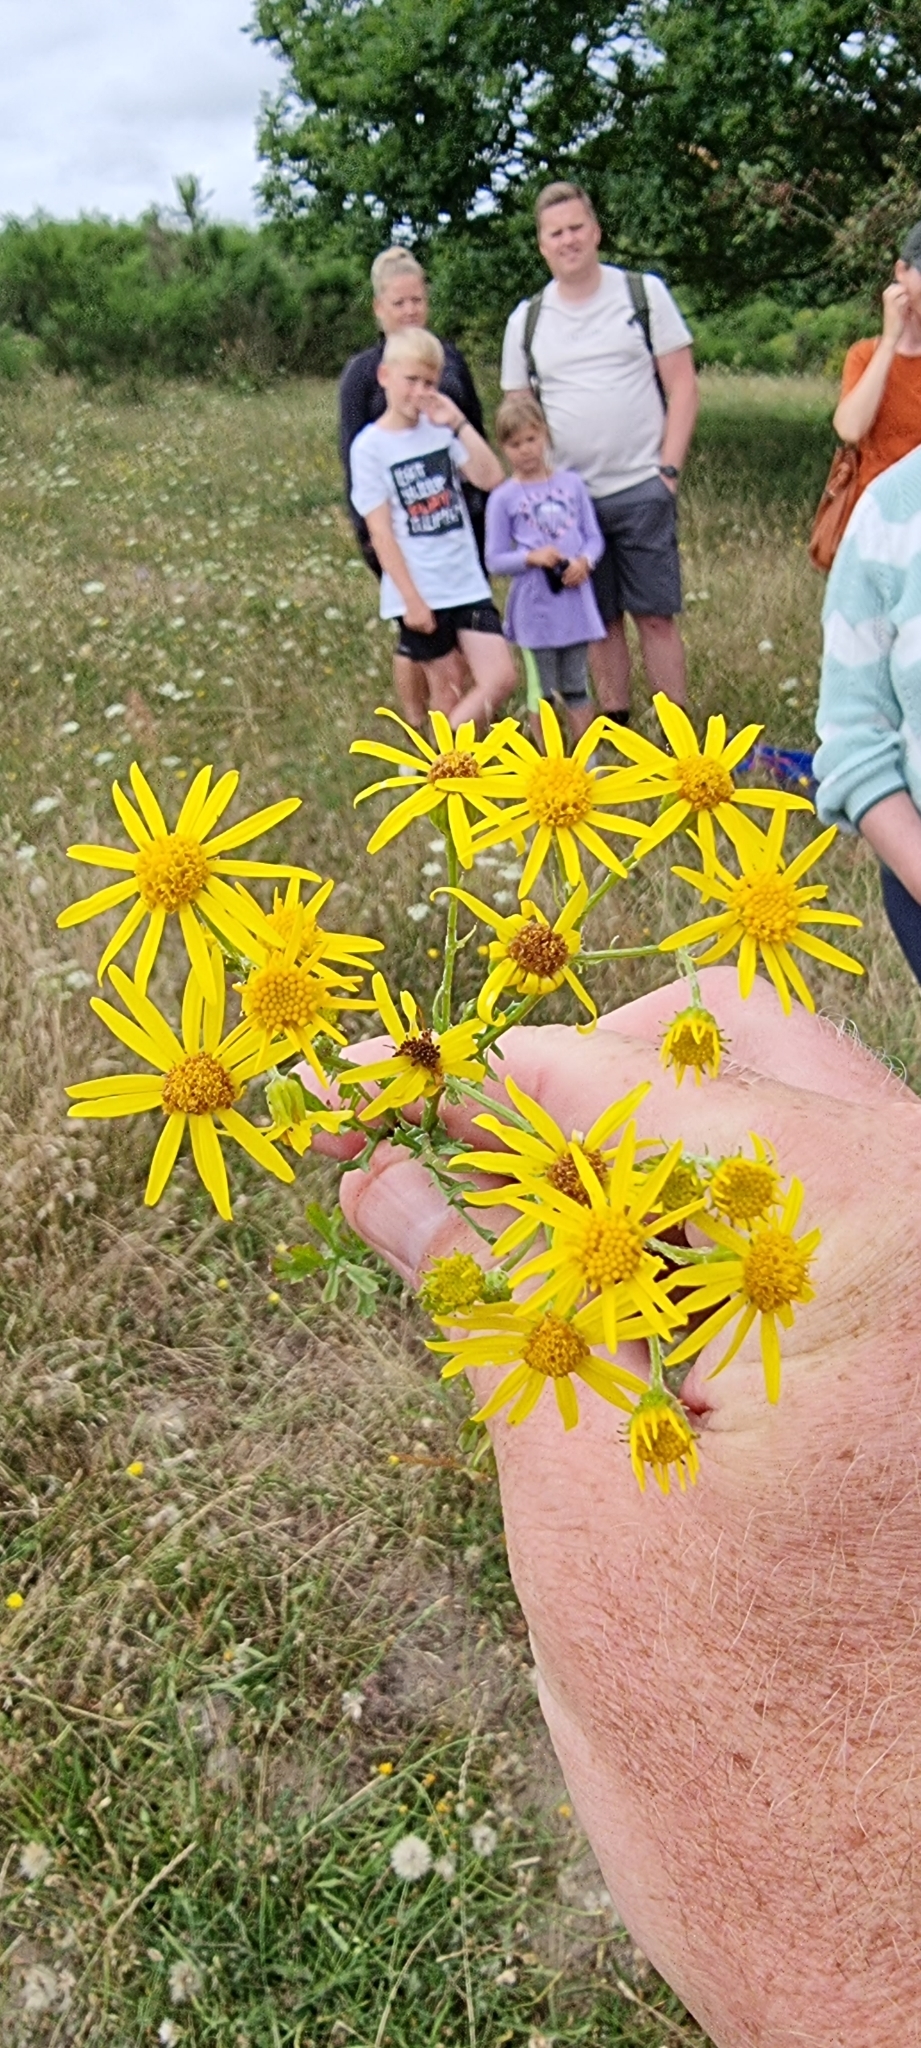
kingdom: Plantae
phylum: Tracheophyta
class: Magnoliopsida
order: Asterales
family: Asteraceae
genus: Jacobaea
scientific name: Jacobaea vulgaris
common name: Stinking willie
